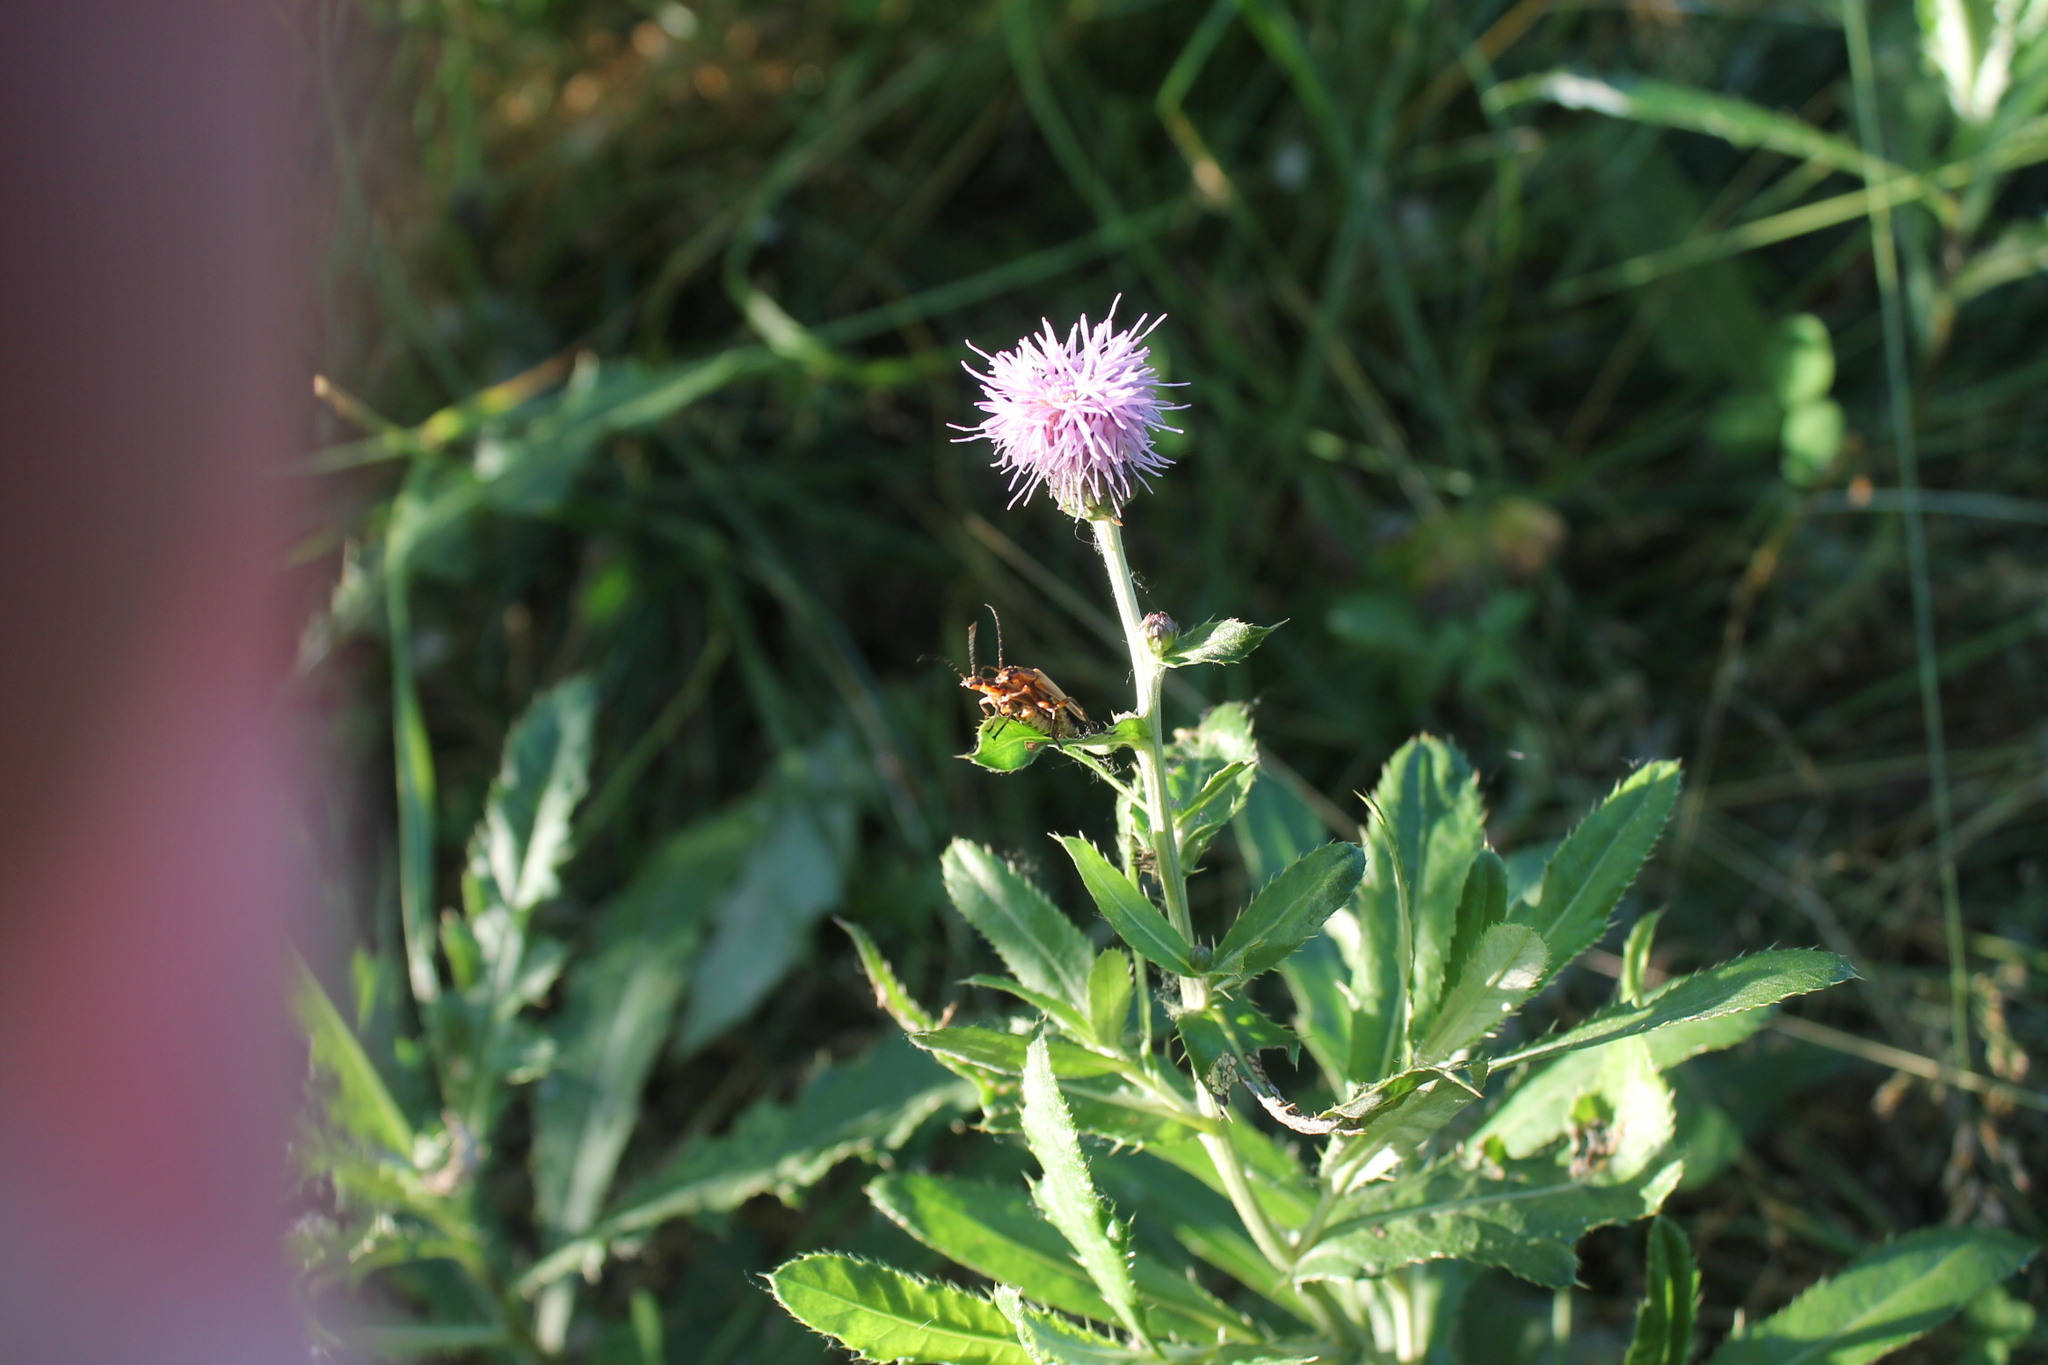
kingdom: Animalia
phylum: Arthropoda
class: Insecta
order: Coleoptera
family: Cantharidae
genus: Chauliognathus
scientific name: Chauliognathus marginatus
